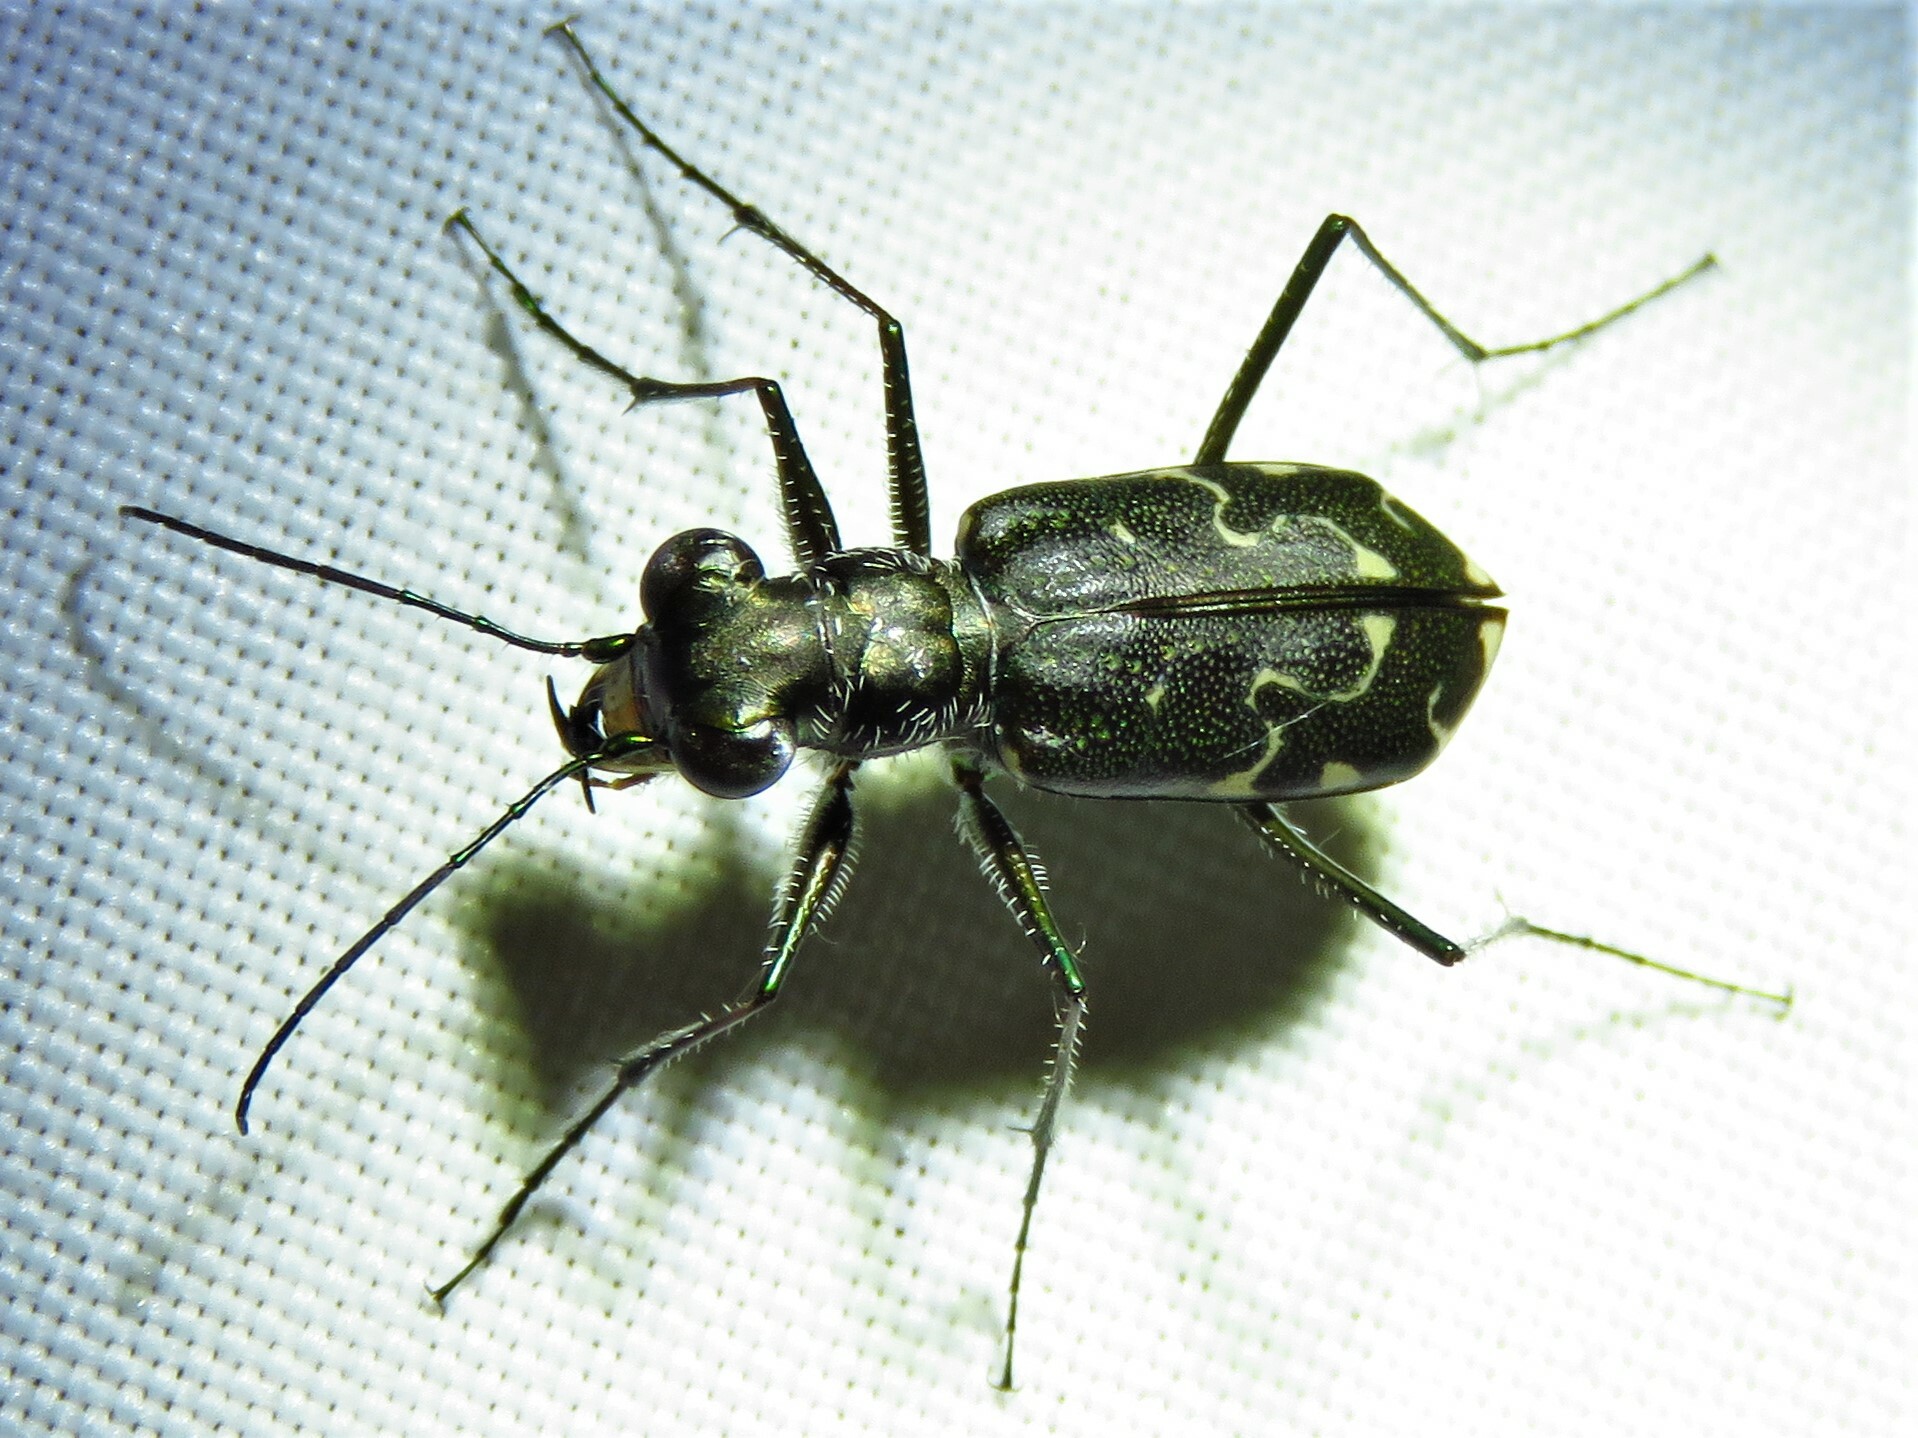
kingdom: Animalia
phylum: Arthropoda
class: Insecta
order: Coleoptera
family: Carabidae
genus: Cicindela
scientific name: Cicindela trifasciata
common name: Mudflat tiger beetle
